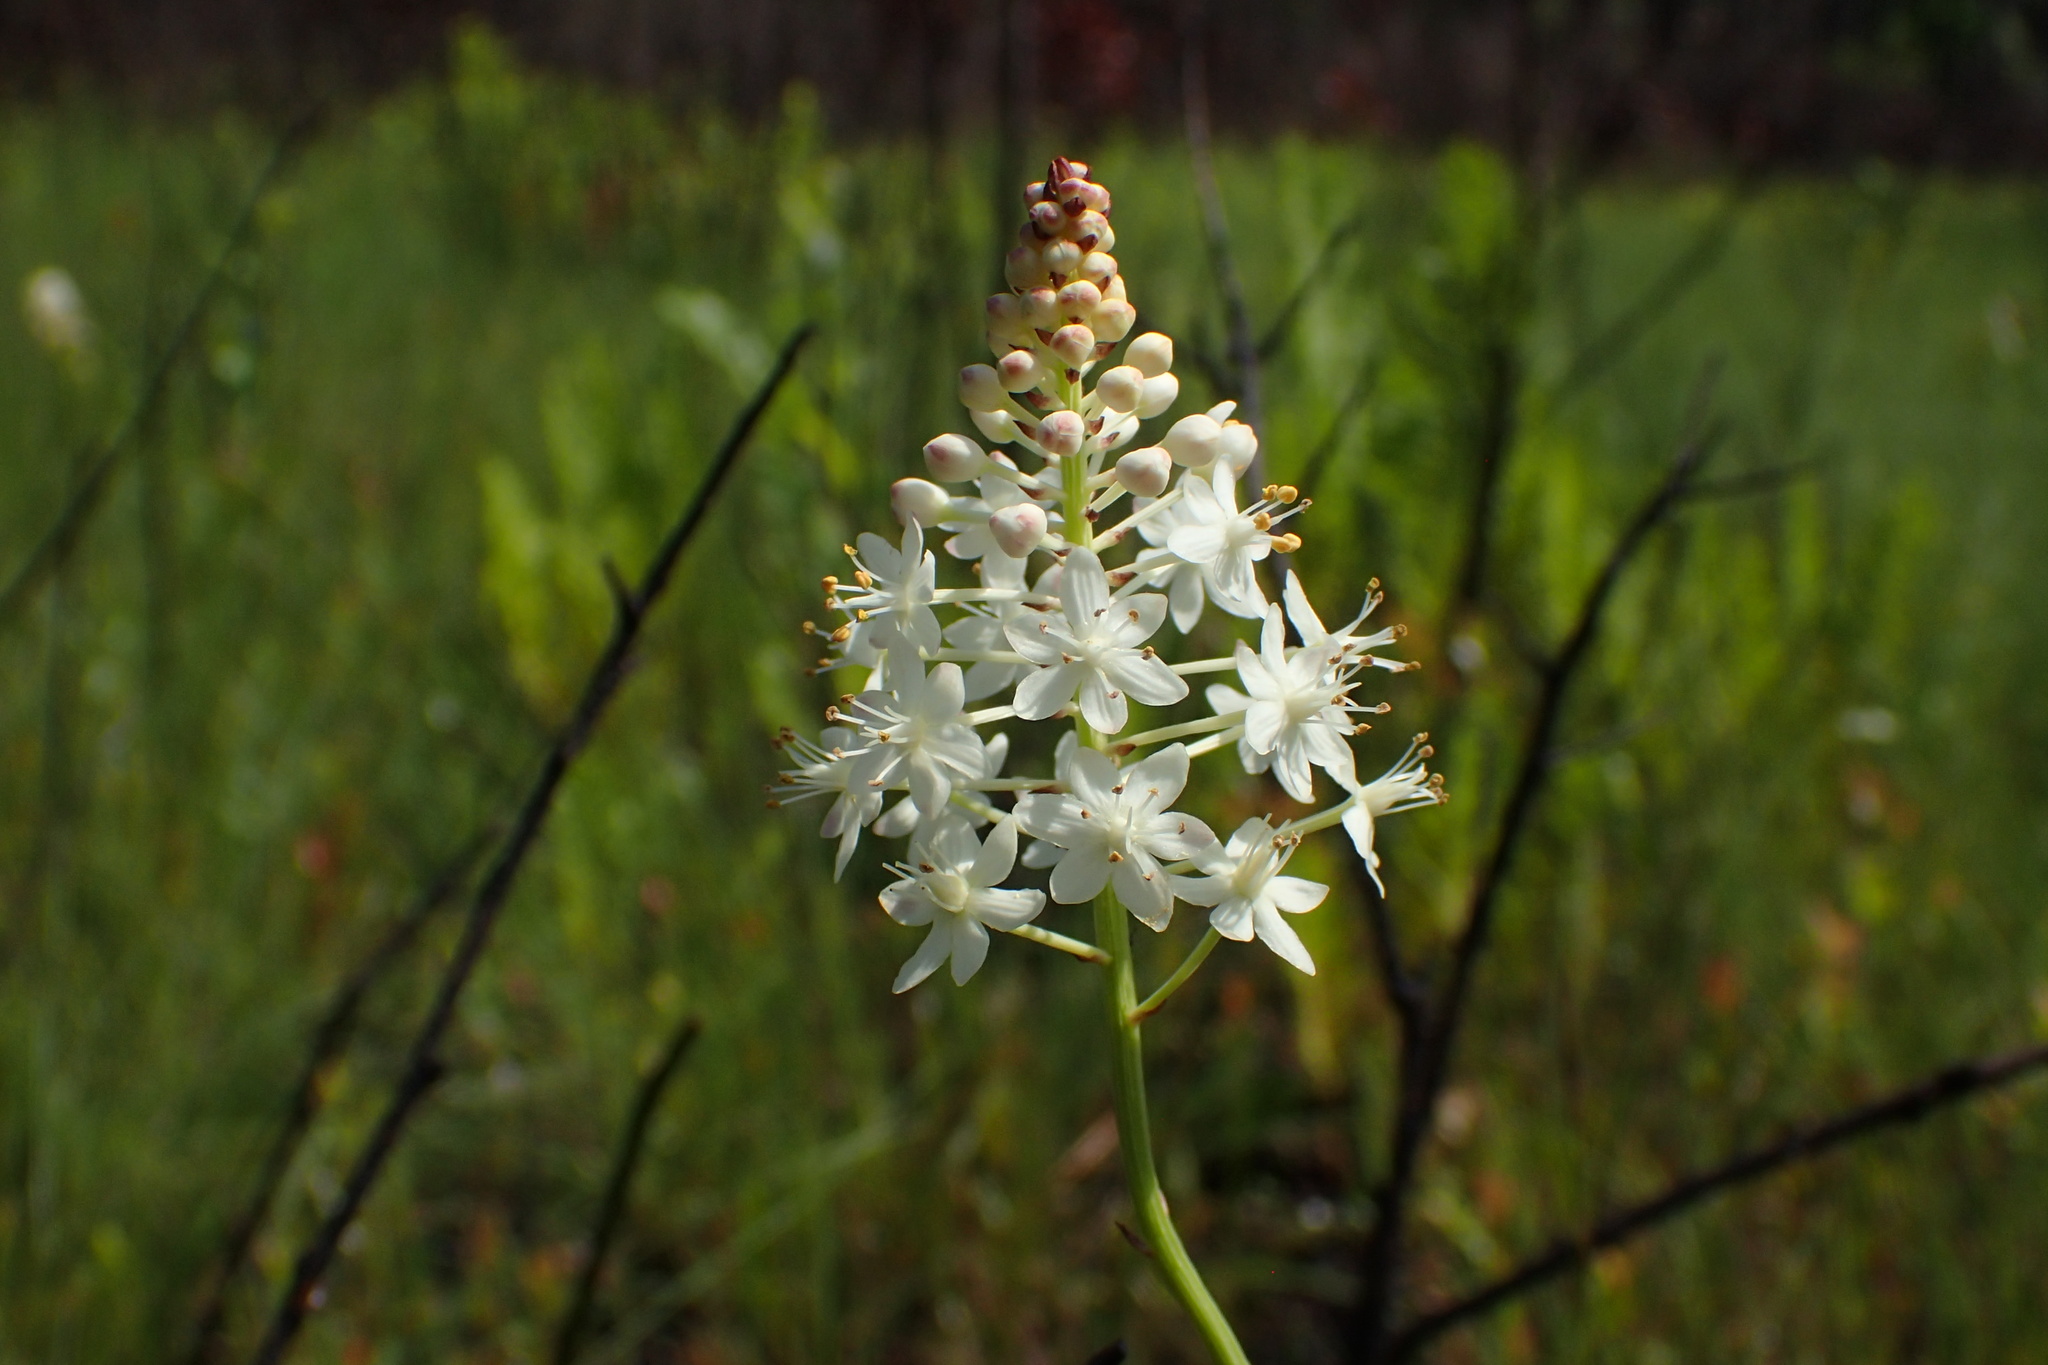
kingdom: Plantae
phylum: Tracheophyta
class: Liliopsida
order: Liliales
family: Melanthiaceae
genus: Stenanthium
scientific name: Stenanthium densum
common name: Crow-poison
